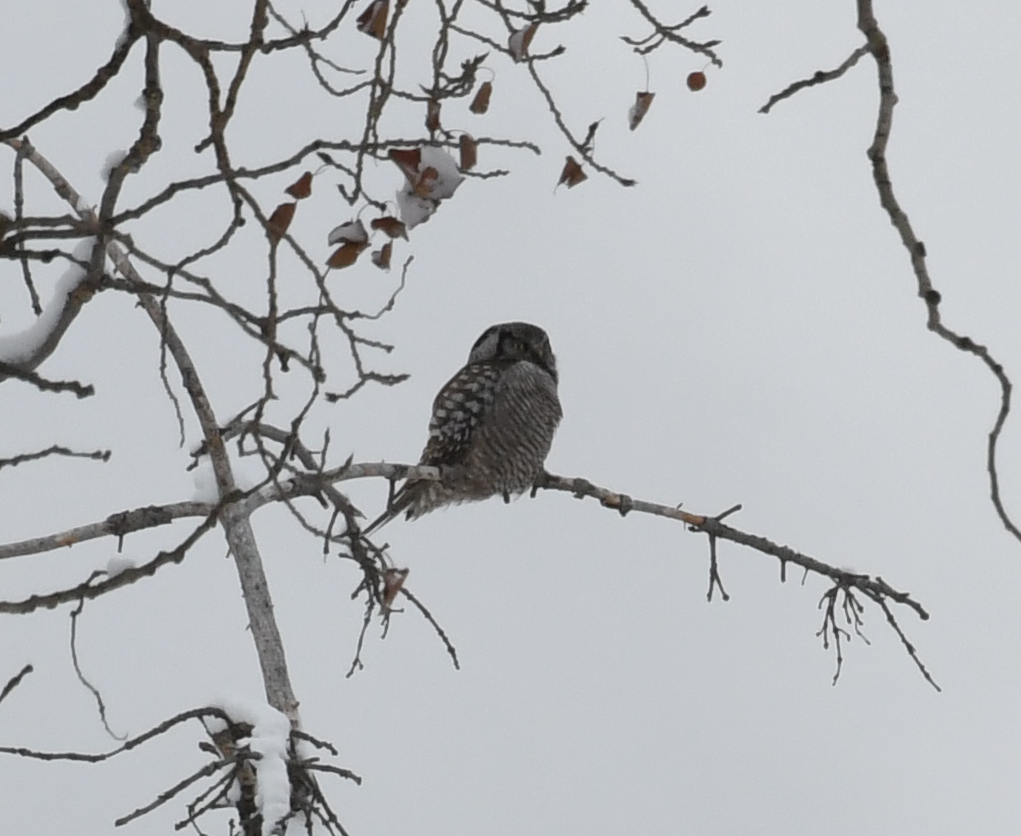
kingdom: Animalia
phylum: Chordata
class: Aves
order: Strigiformes
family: Strigidae
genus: Surnia
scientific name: Surnia ulula
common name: Northern hawk-owl
